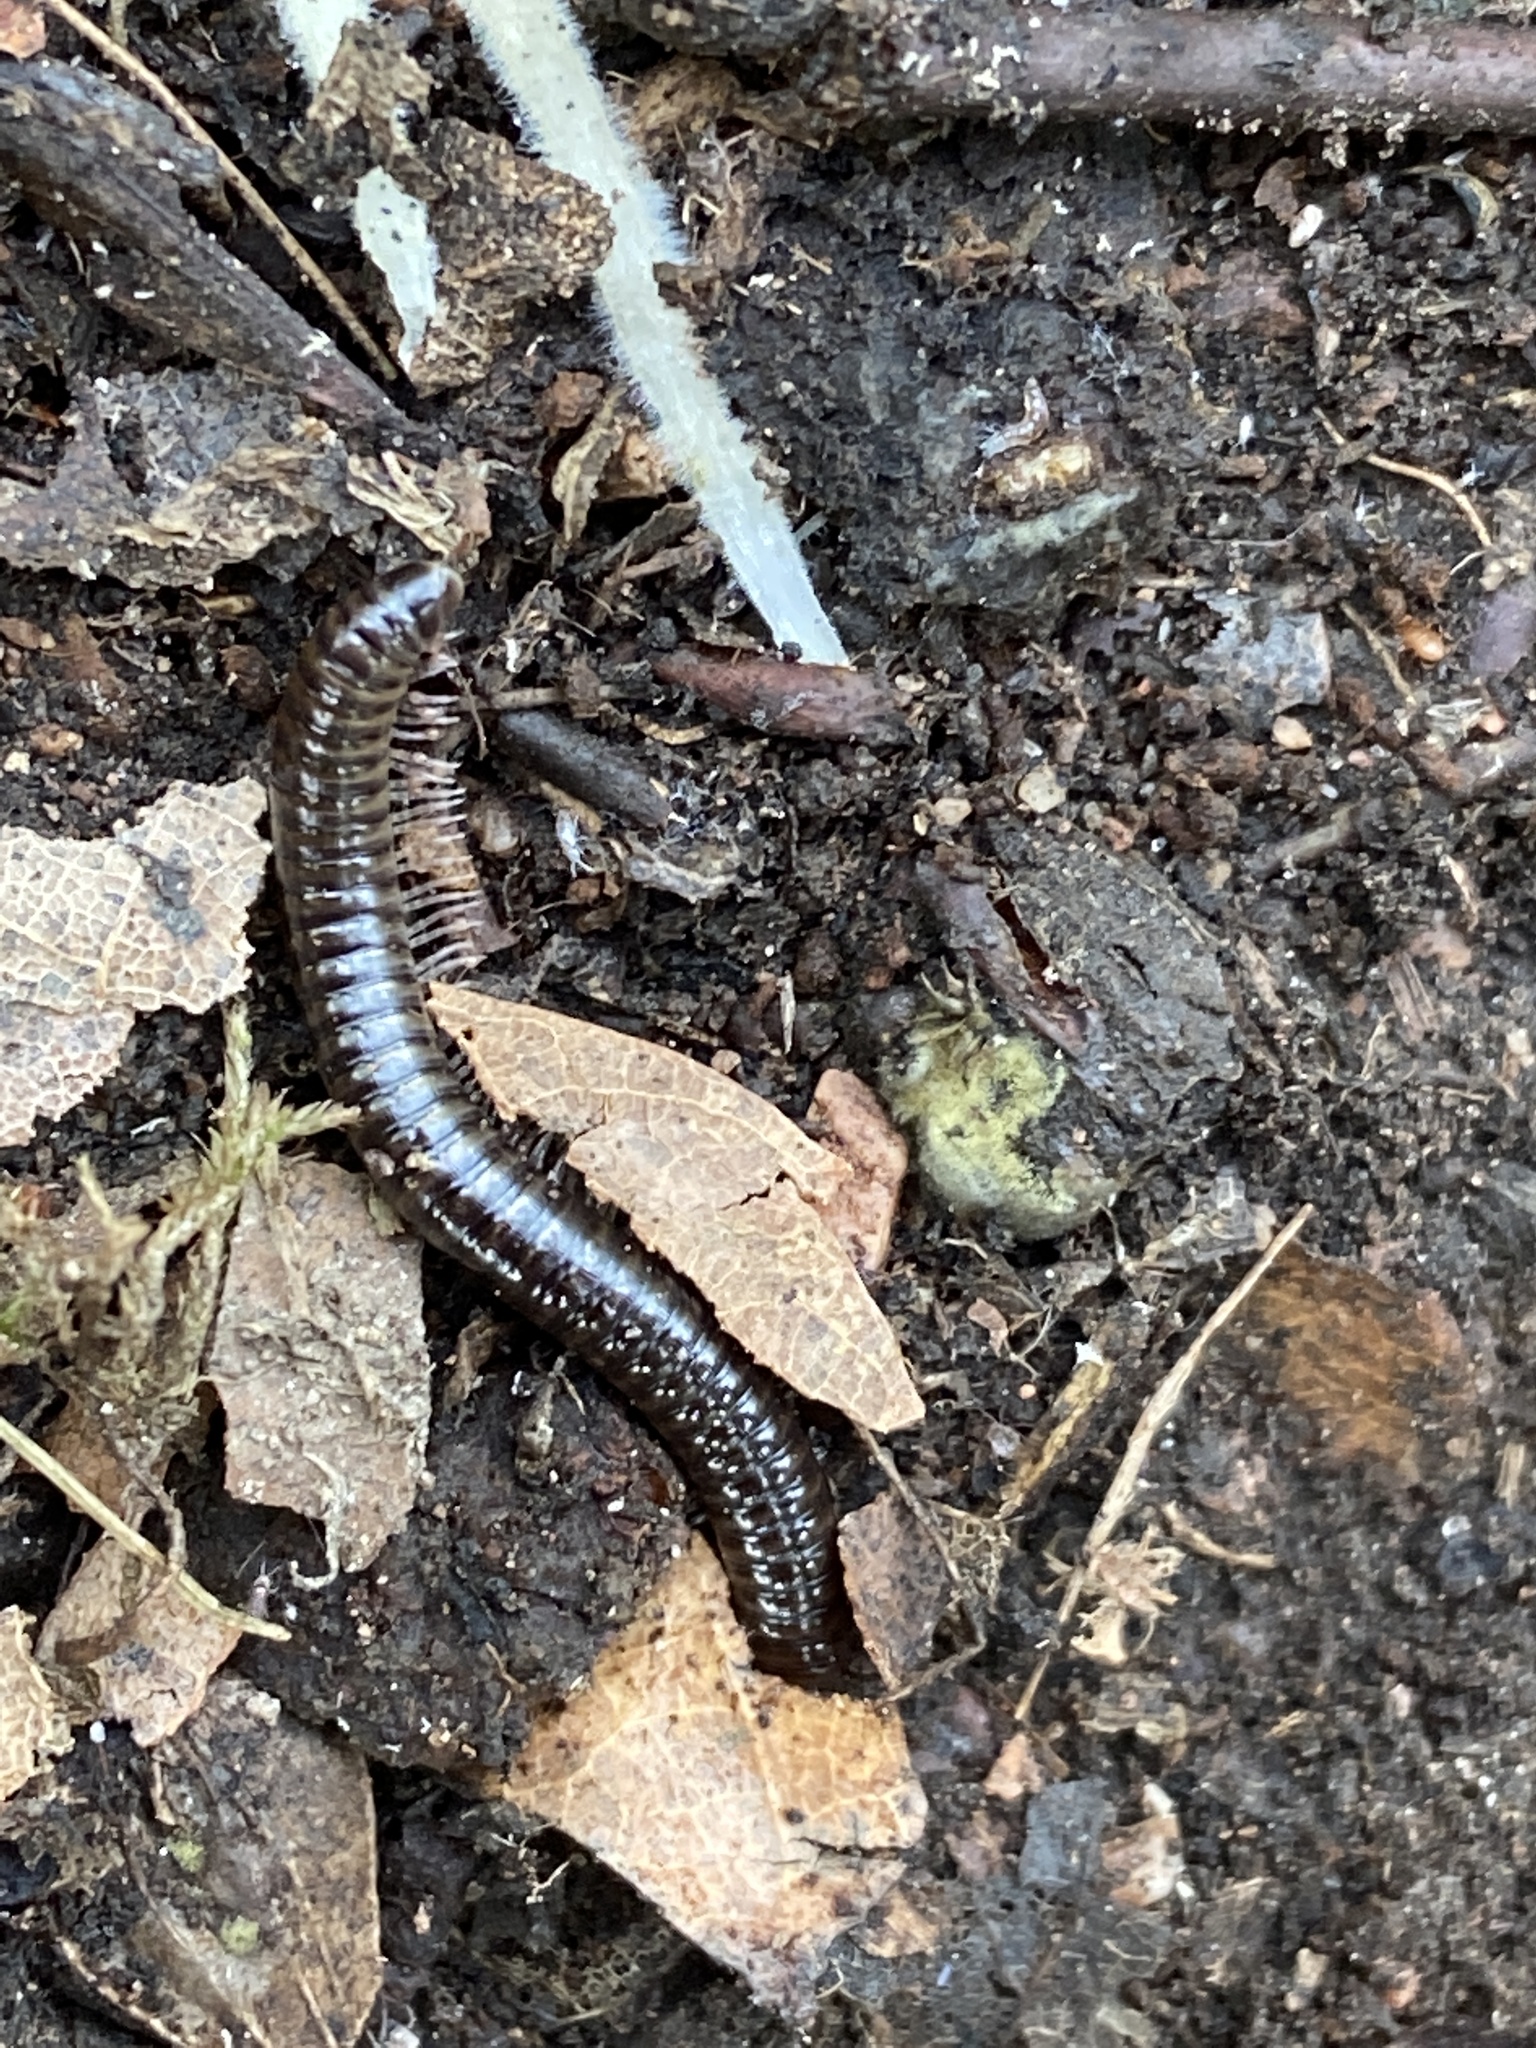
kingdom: Animalia
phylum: Arthropoda
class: Diplopoda
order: Julida
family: Julidae
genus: Cylindroiulus
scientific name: Cylindroiulus caeruleocinctus
